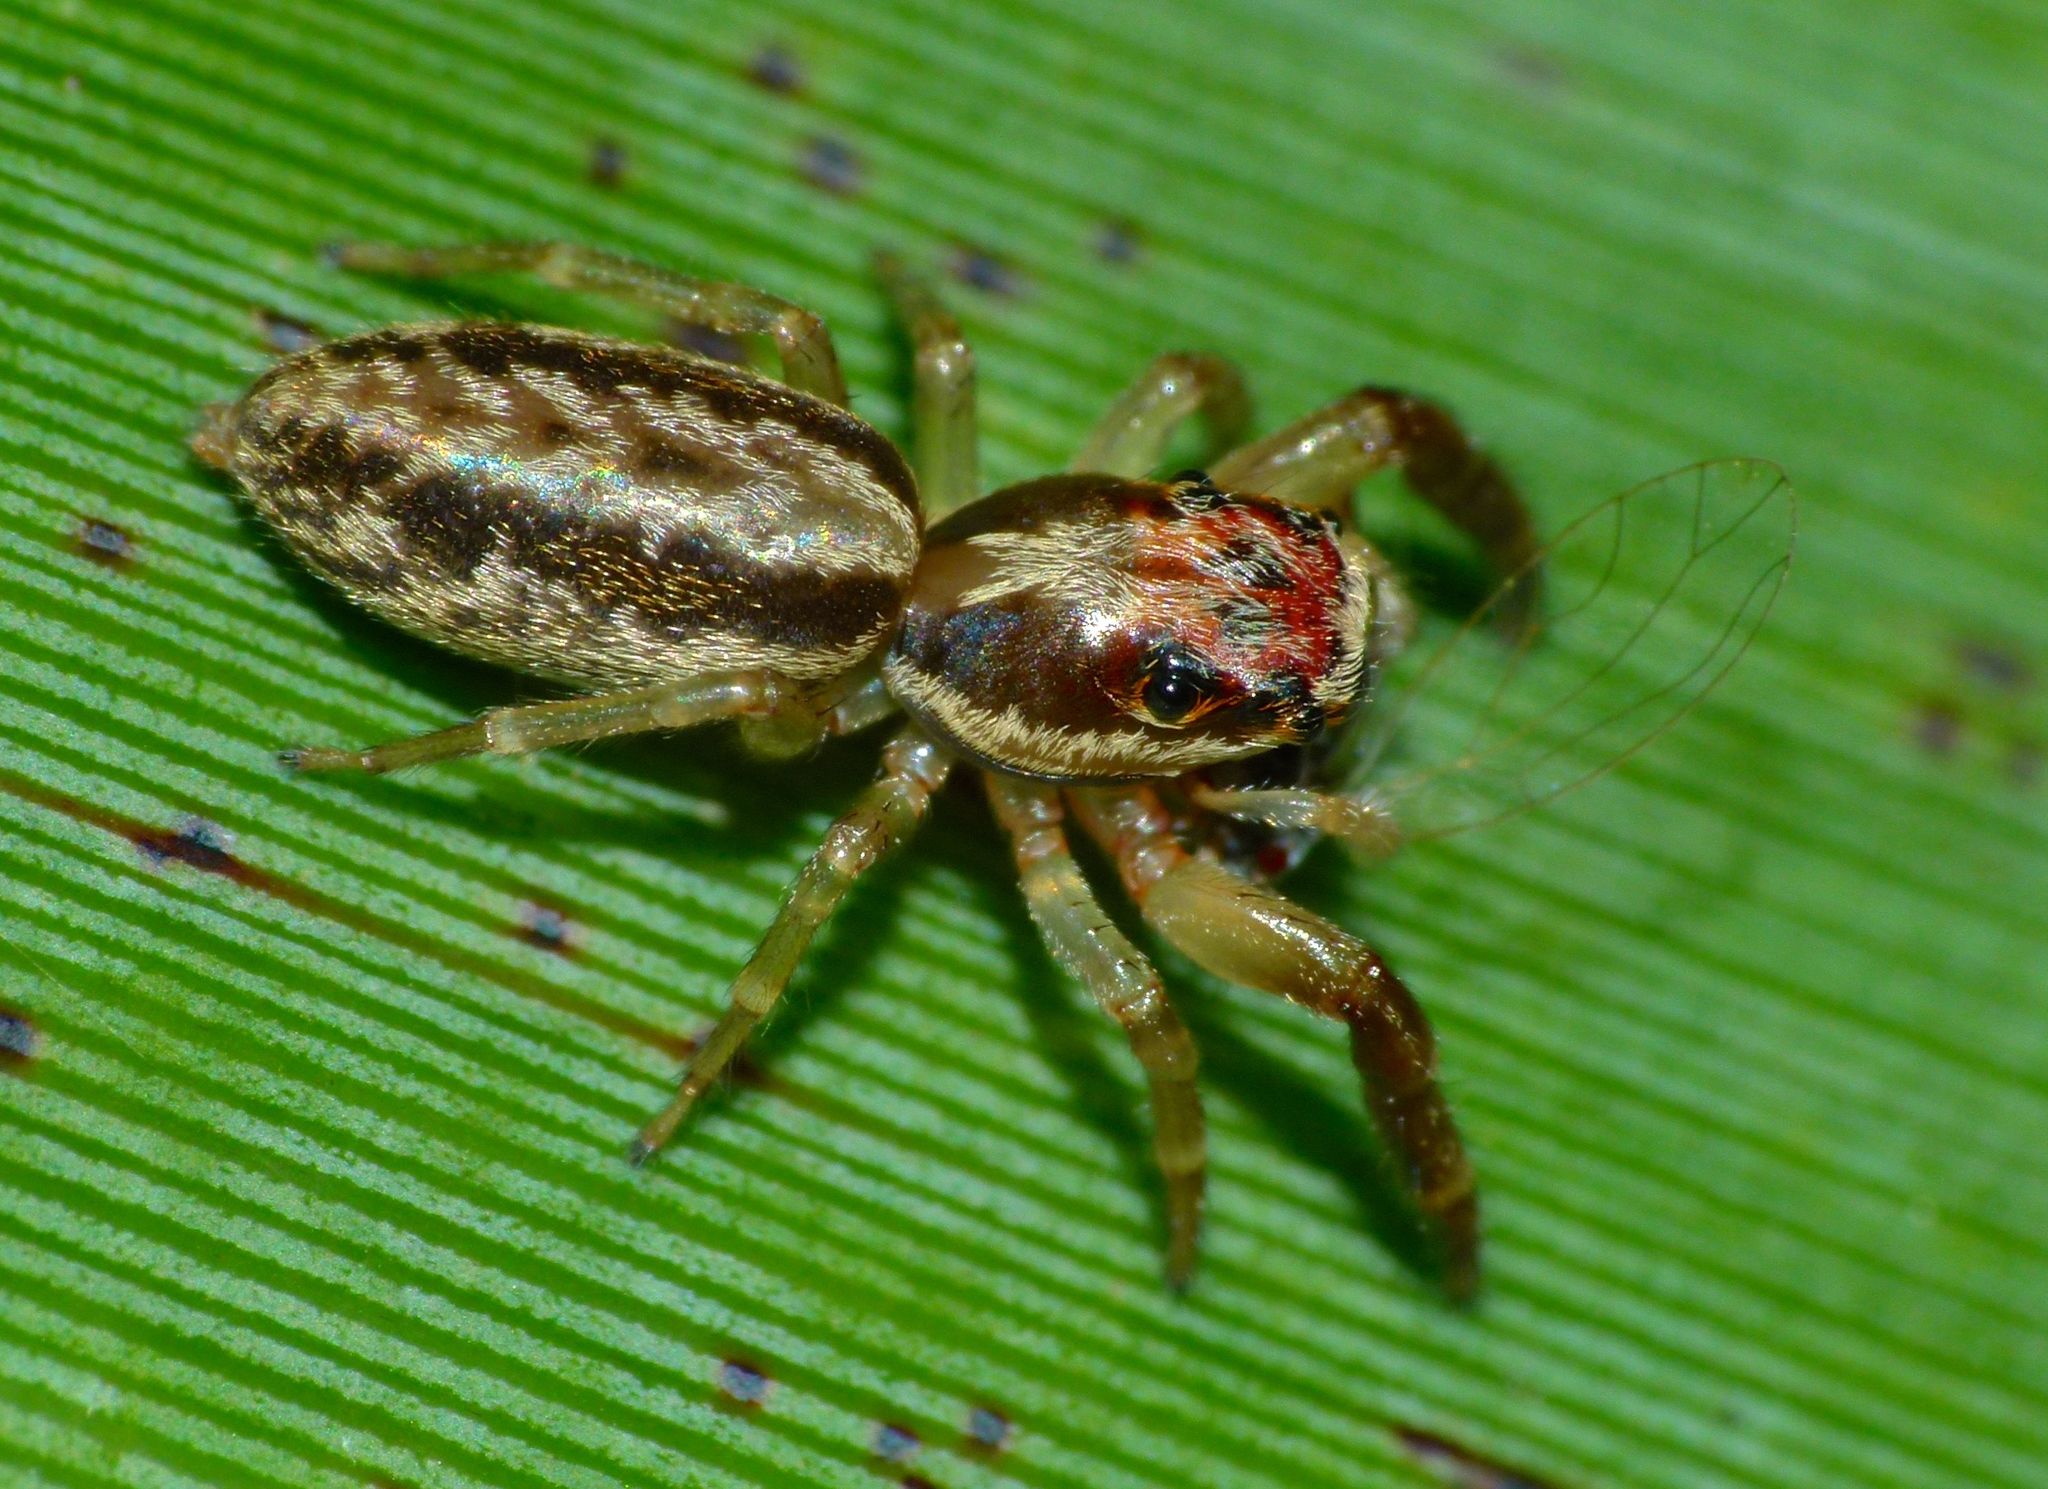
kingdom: Animalia
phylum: Arthropoda
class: Arachnida
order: Araneae
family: Salticidae
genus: Trite
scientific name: Trite mustilina
